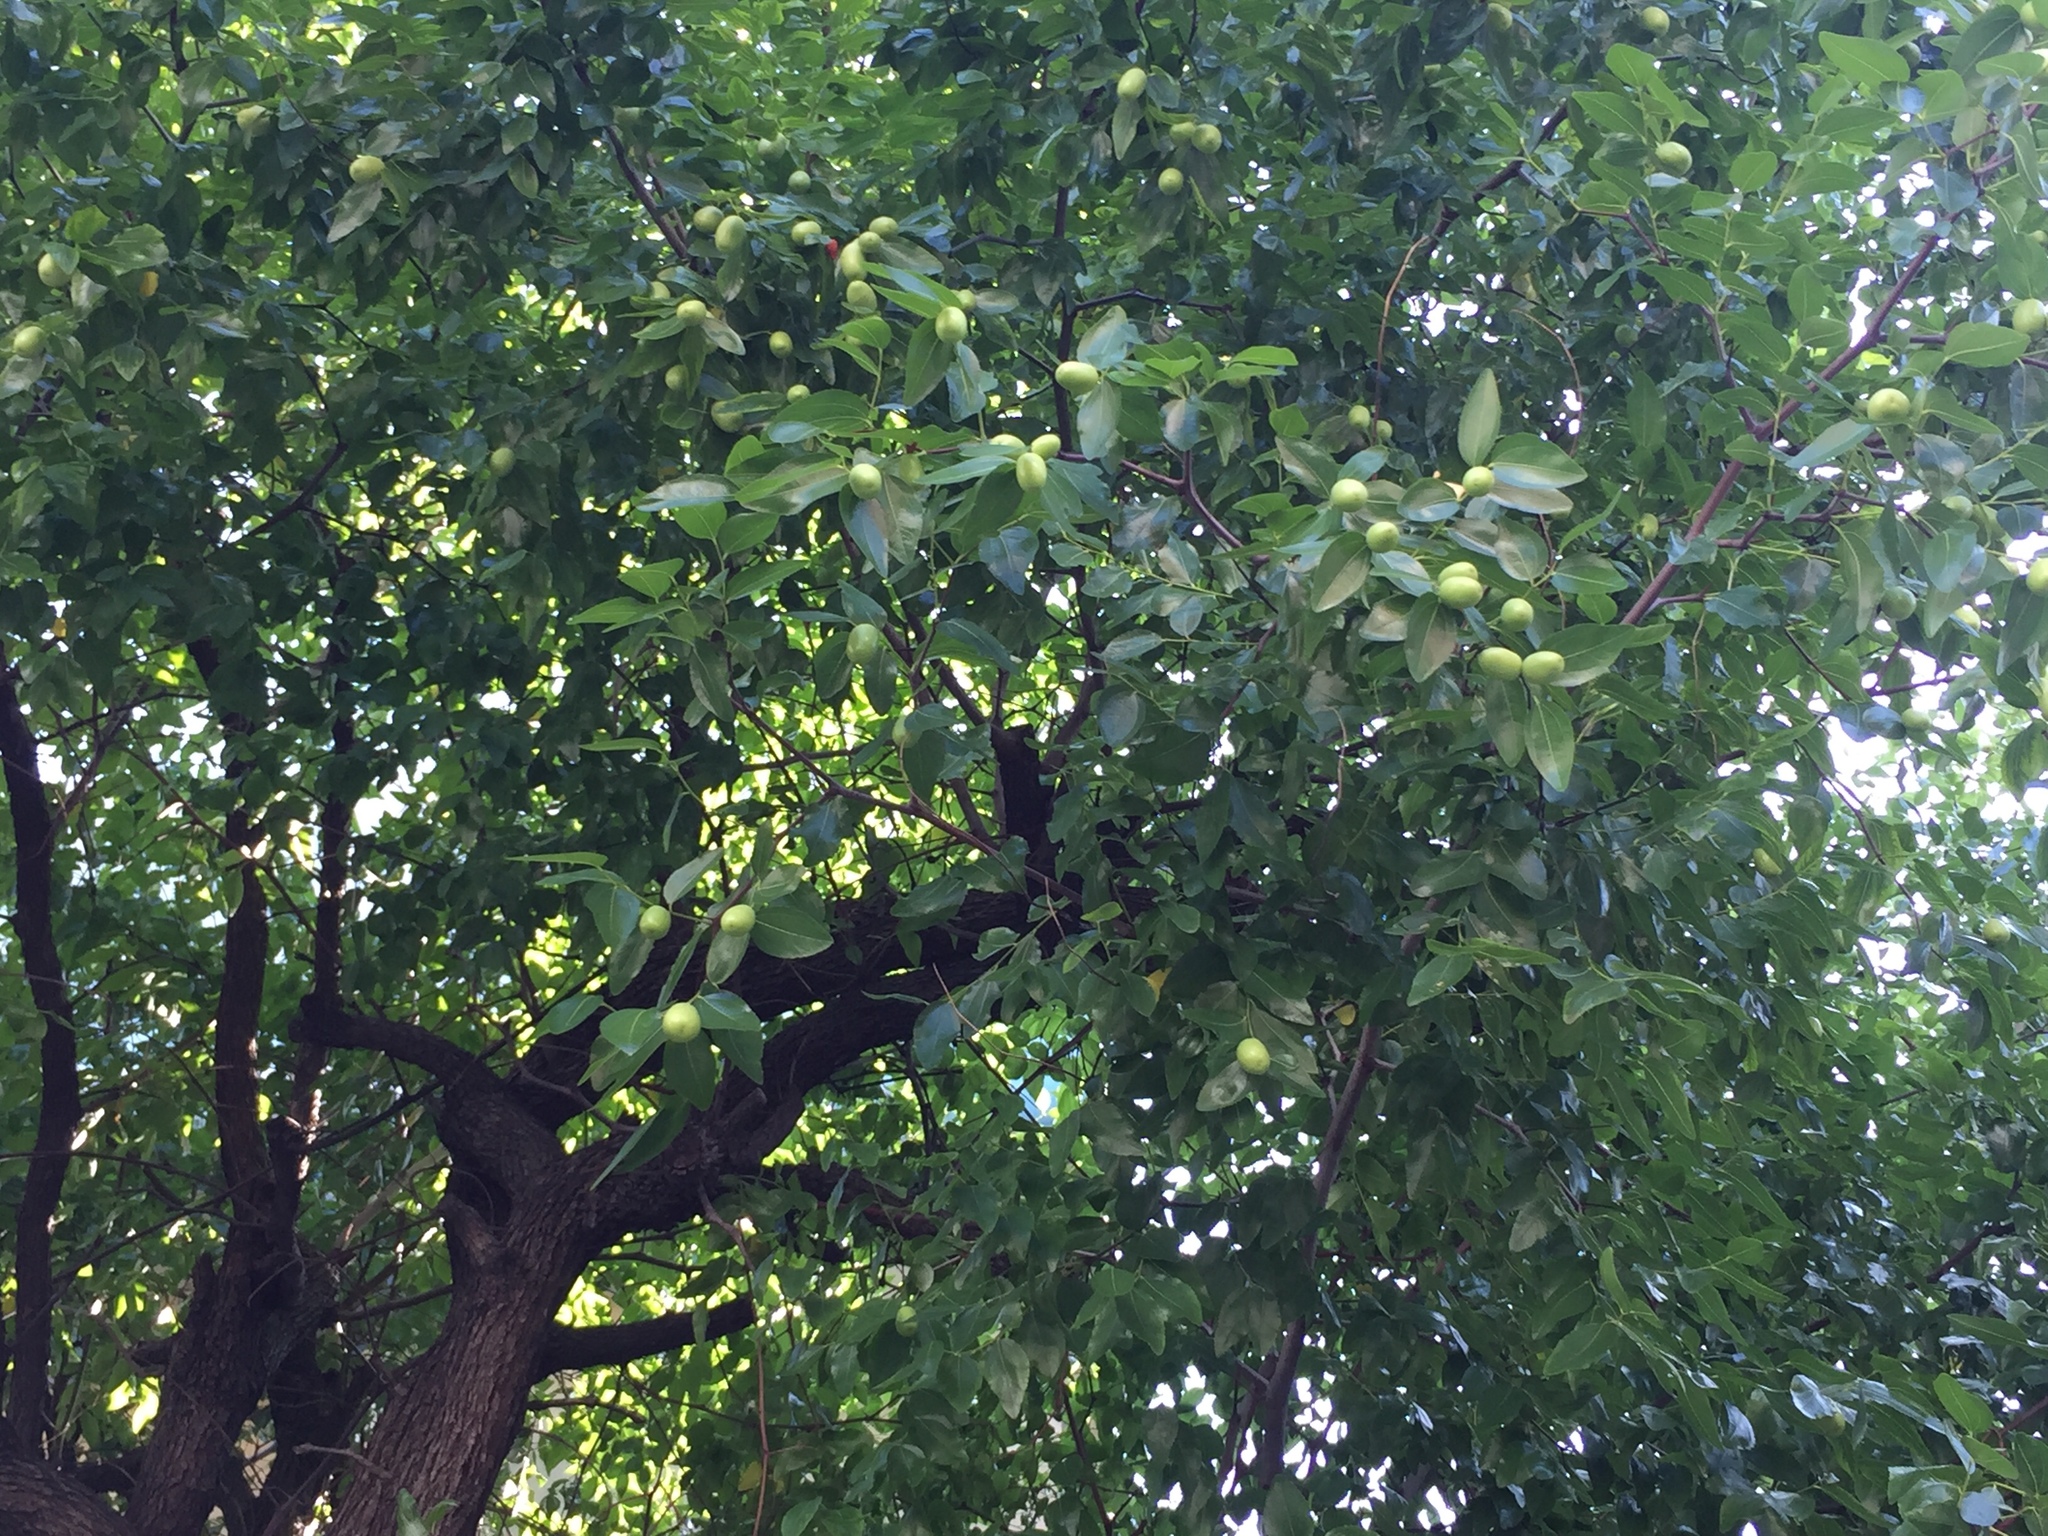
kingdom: Plantae
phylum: Tracheophyta
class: Magnoliopsida
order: Rosales
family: Rhamnaceae
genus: Ziziphus
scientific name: Ziziphus jujuba
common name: Jujube red date
